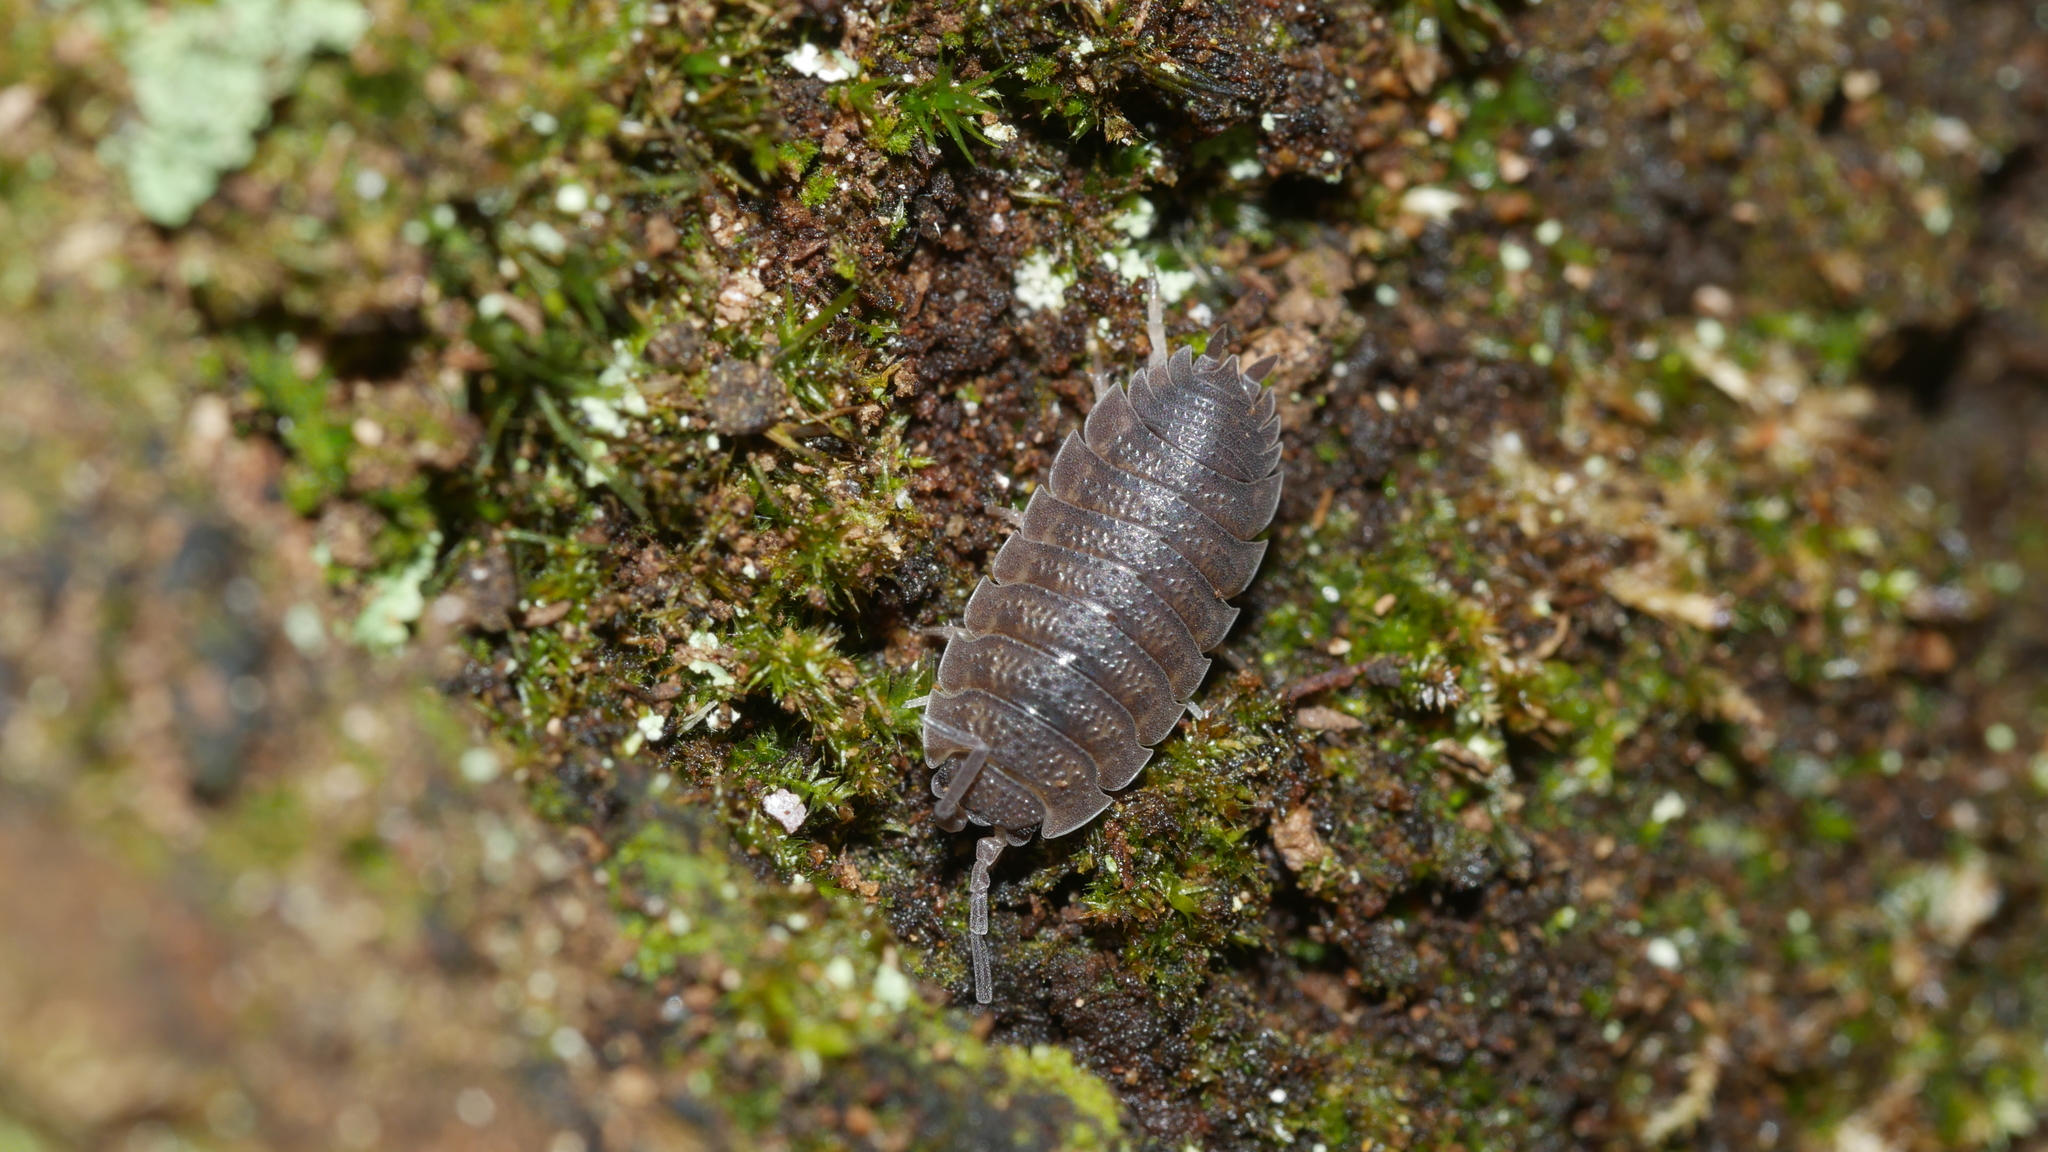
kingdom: Animalia
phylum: Arthropoda
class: Malacostraca
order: Isopoda
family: Porcellionidae
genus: Porcellio
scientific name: Porcellio scaber
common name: Common rough woodlouse
